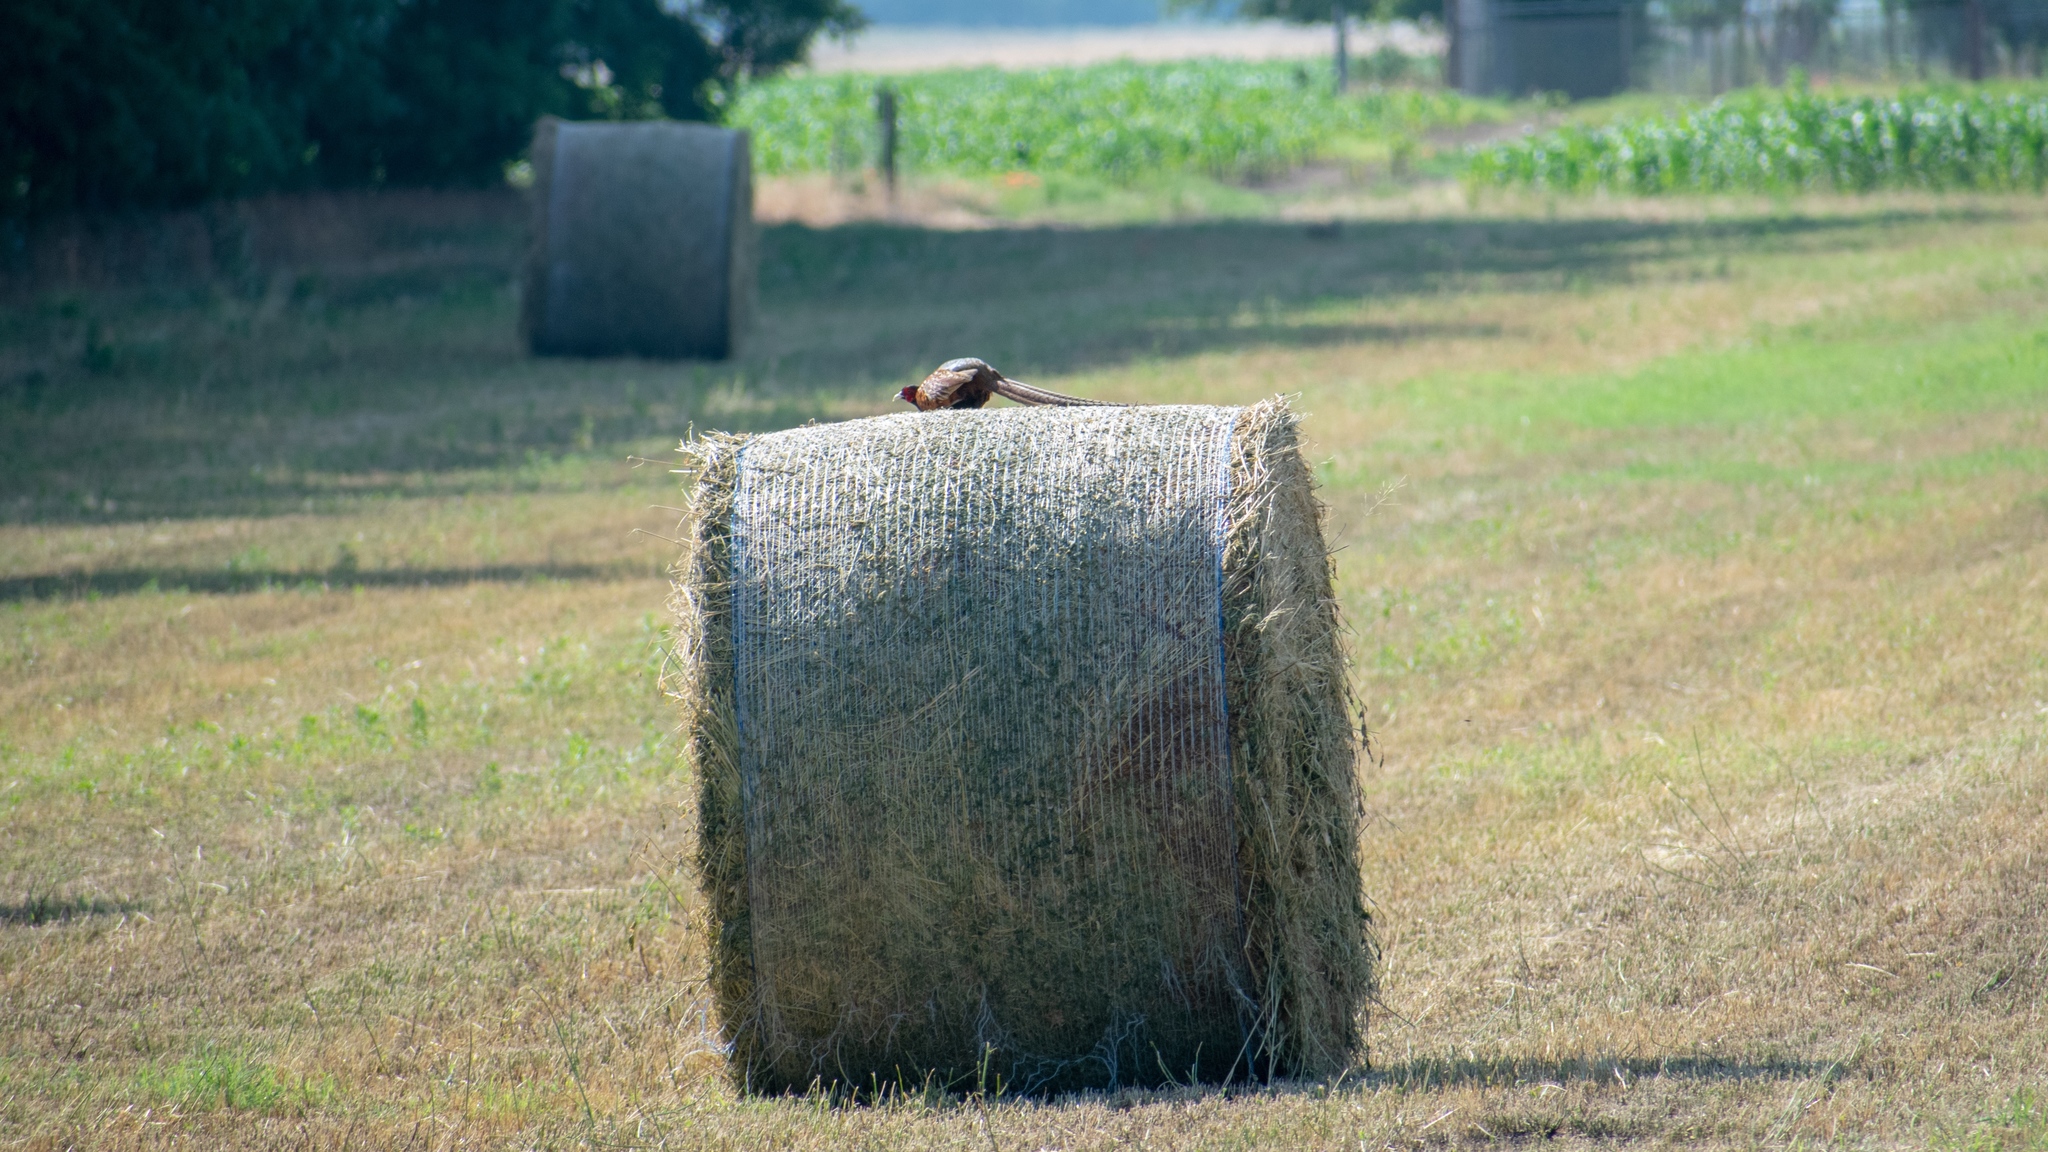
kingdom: Animalia
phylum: Chordata
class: Aves
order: Galliformes
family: Phasianidae
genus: Phasianus
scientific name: Phasianus colchicus
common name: Common pheasant
